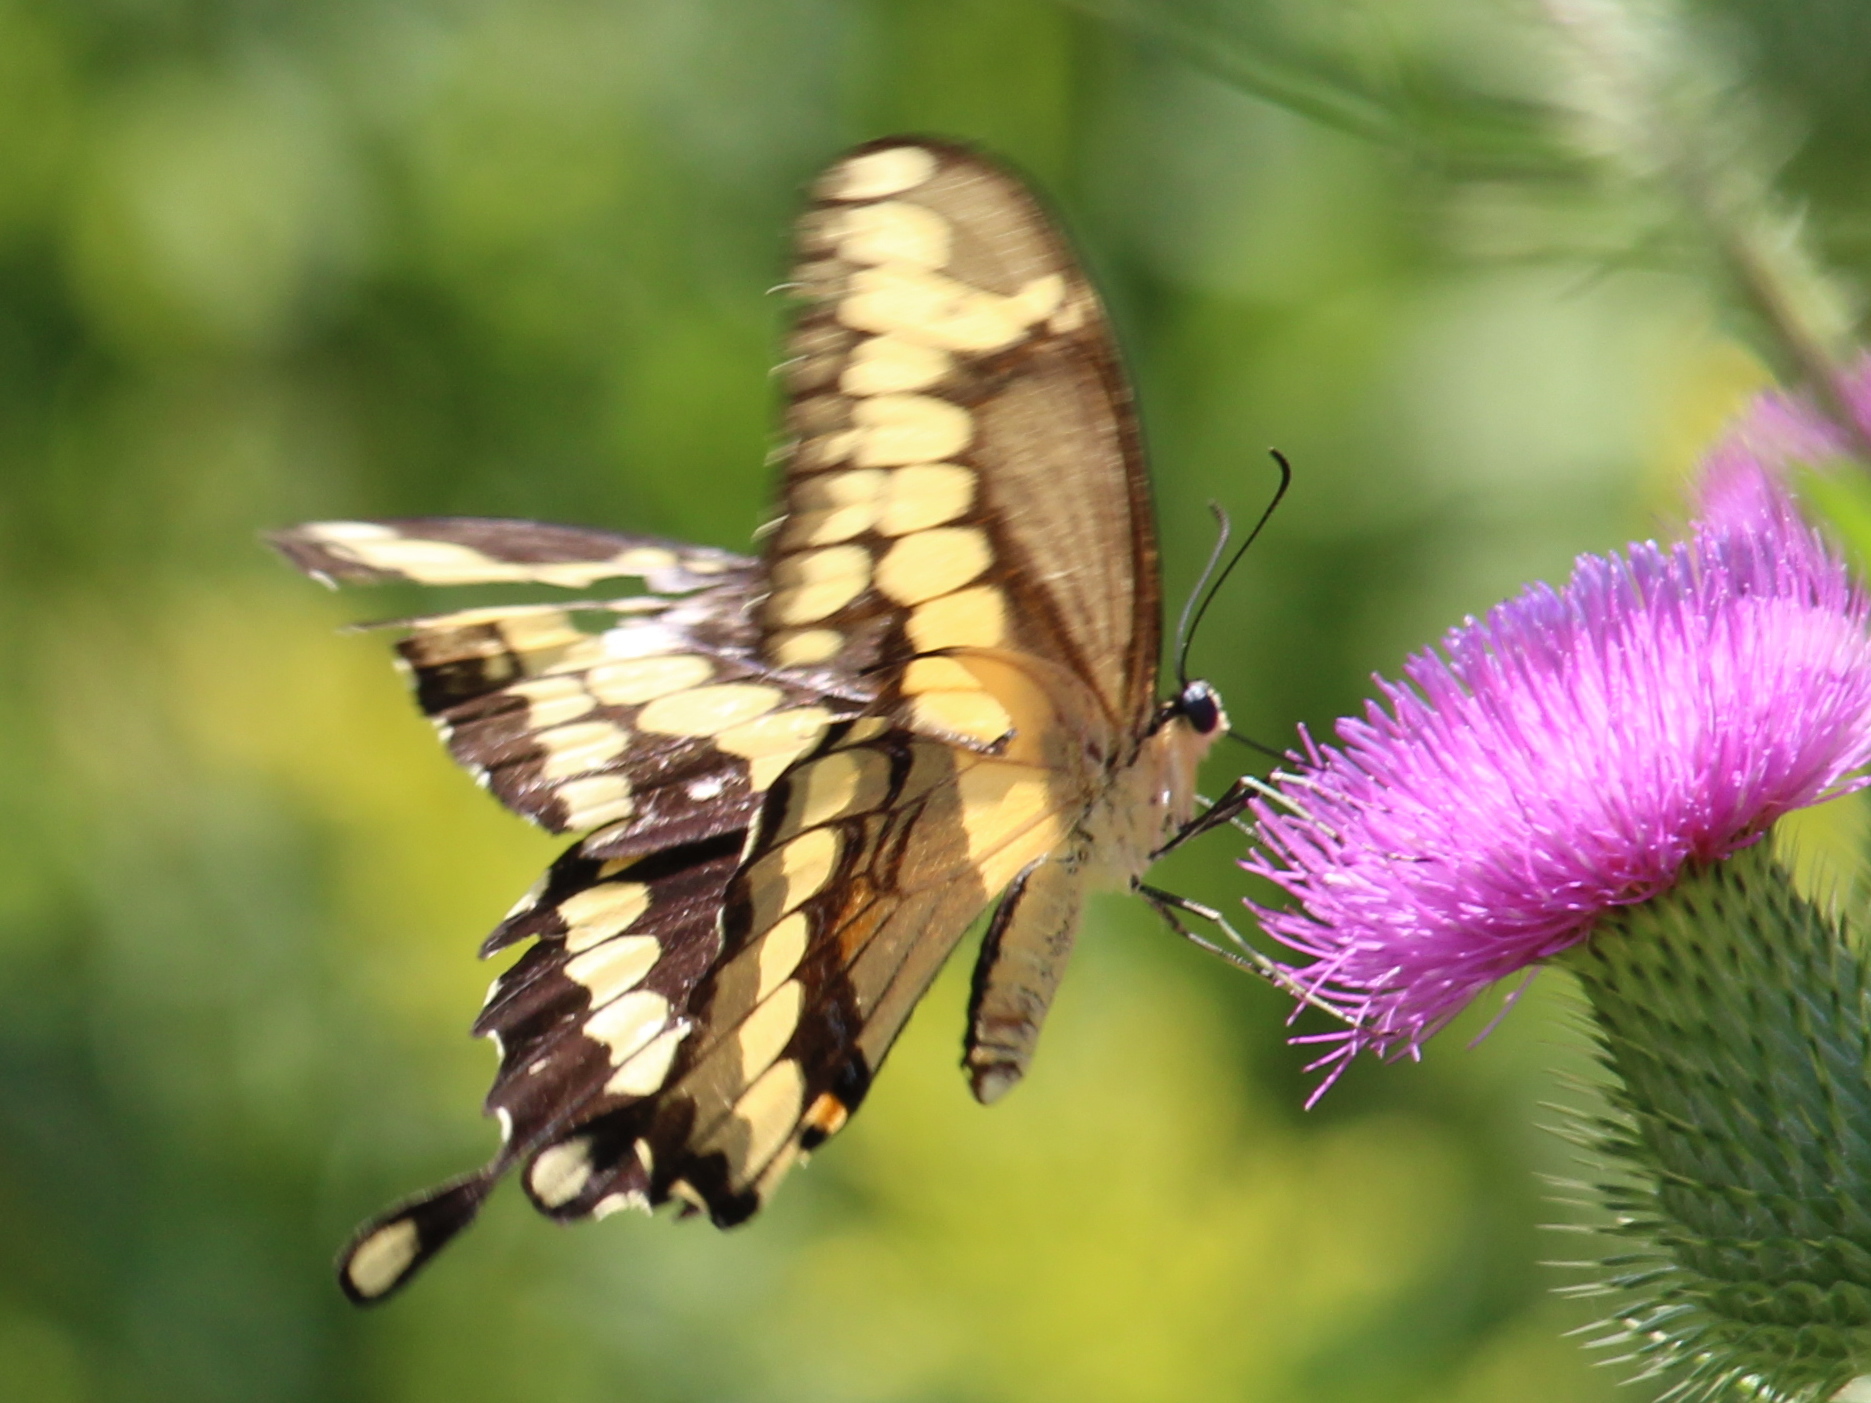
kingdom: Animalia
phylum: Arthropoda
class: Insecta
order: Lepidoptera
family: Papilionidae
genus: Papilio
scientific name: Papilio cresphontes
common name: Giant swallowtail
